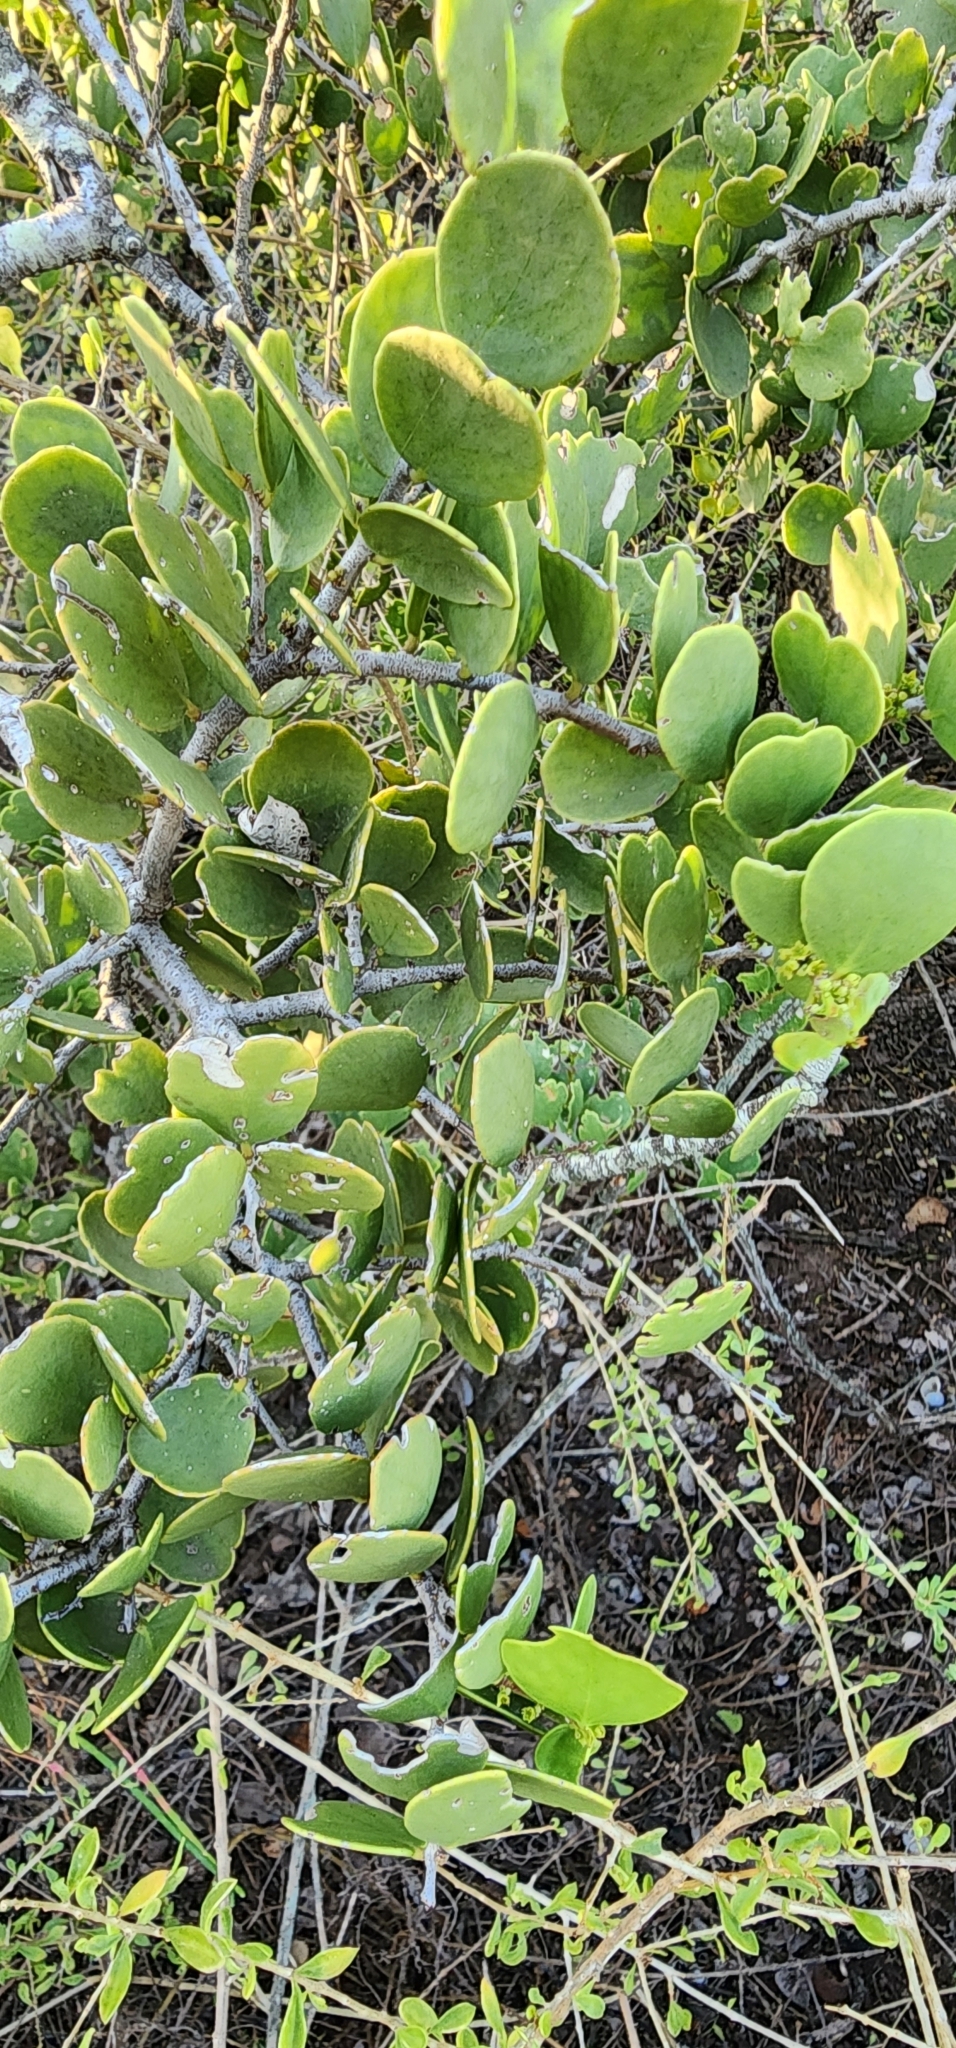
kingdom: Plantae
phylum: Tracheophyta
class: Magnoliopsida
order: Celastrales
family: Celastraceae
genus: Tricerma
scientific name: Tricerma vitis-idaeum
